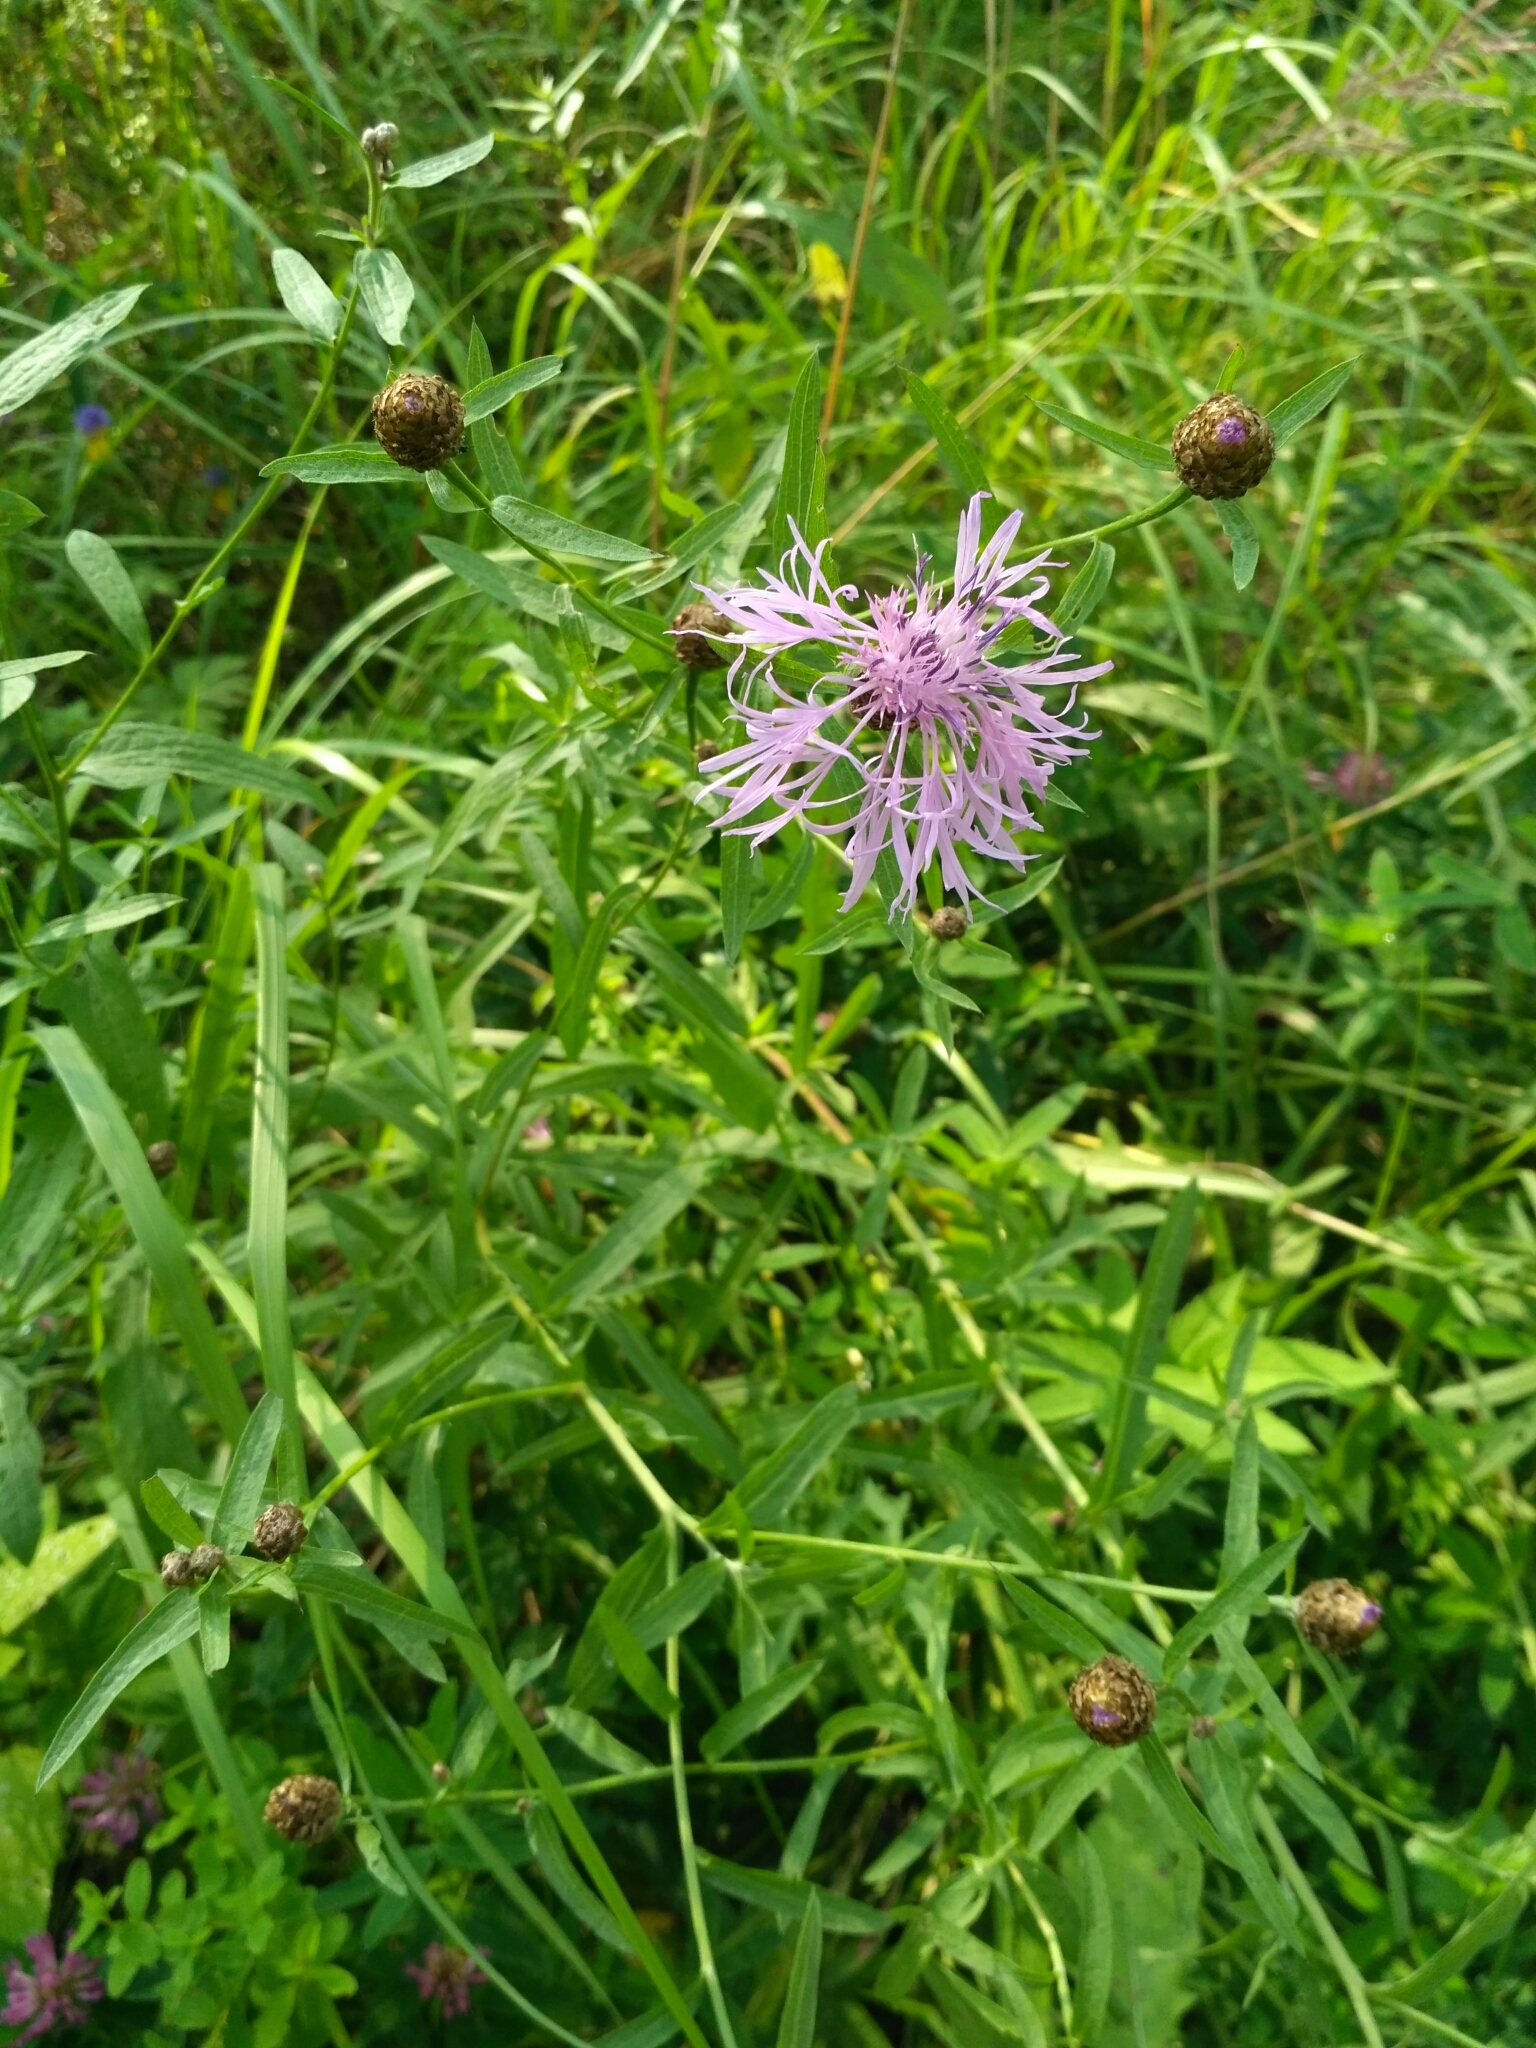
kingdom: Plantae
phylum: Tracheophyta
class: Magnoliopsida
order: Asterales
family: Asteraceae
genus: Centaurea
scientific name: Centaurea jacea
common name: Brown knapweed
